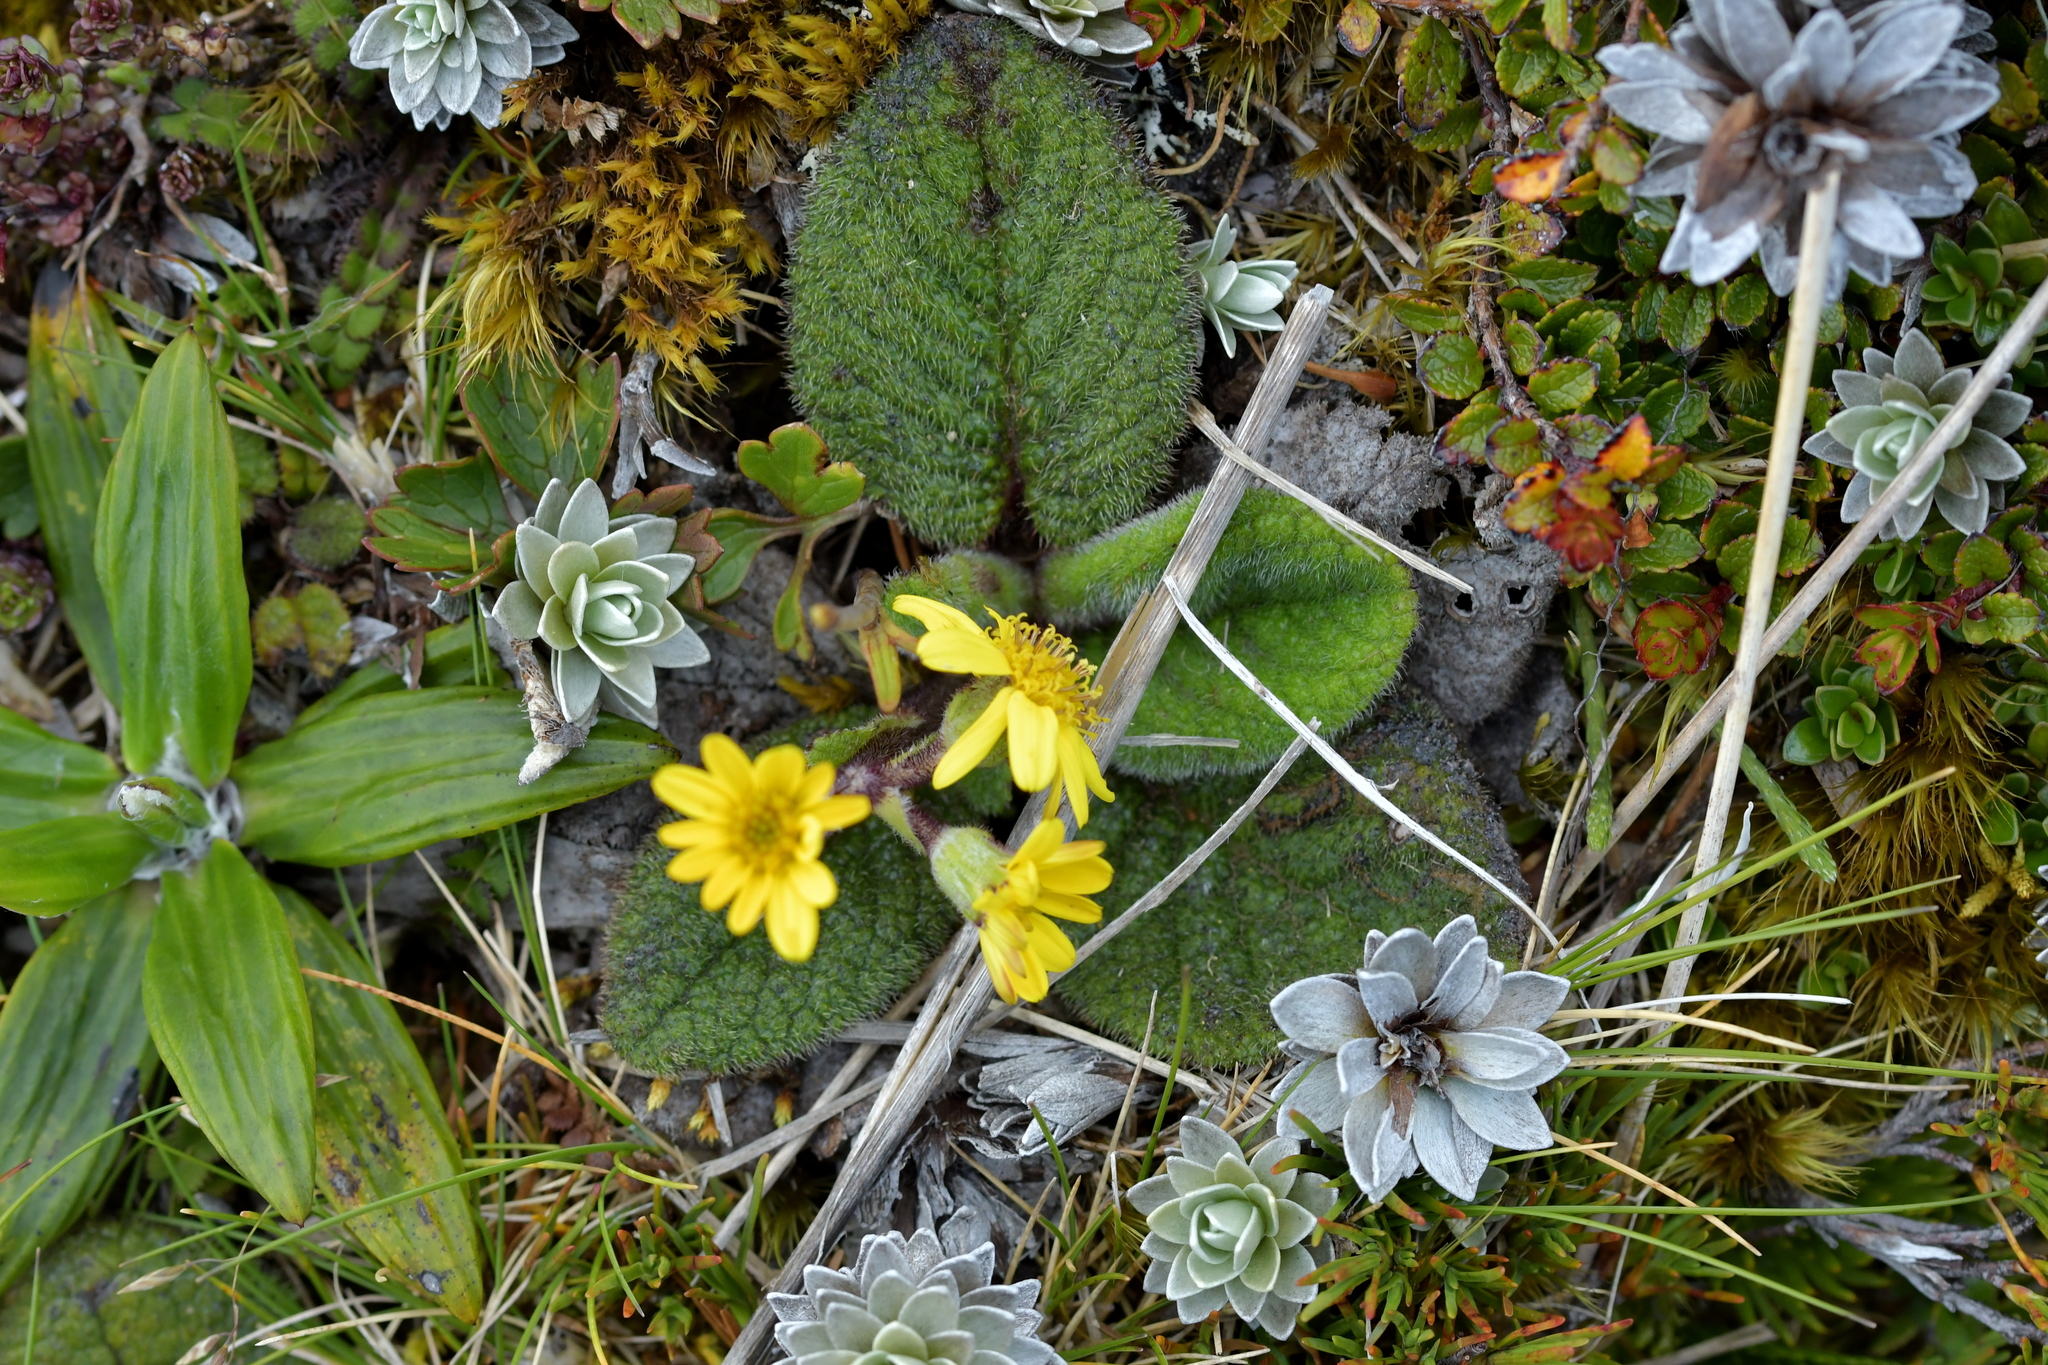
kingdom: Plantae
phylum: Tracheophyta
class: Magnoliopsida
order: Asterales
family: Asteraceae
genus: Brachyglottis
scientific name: Brachyglottis lagopus
